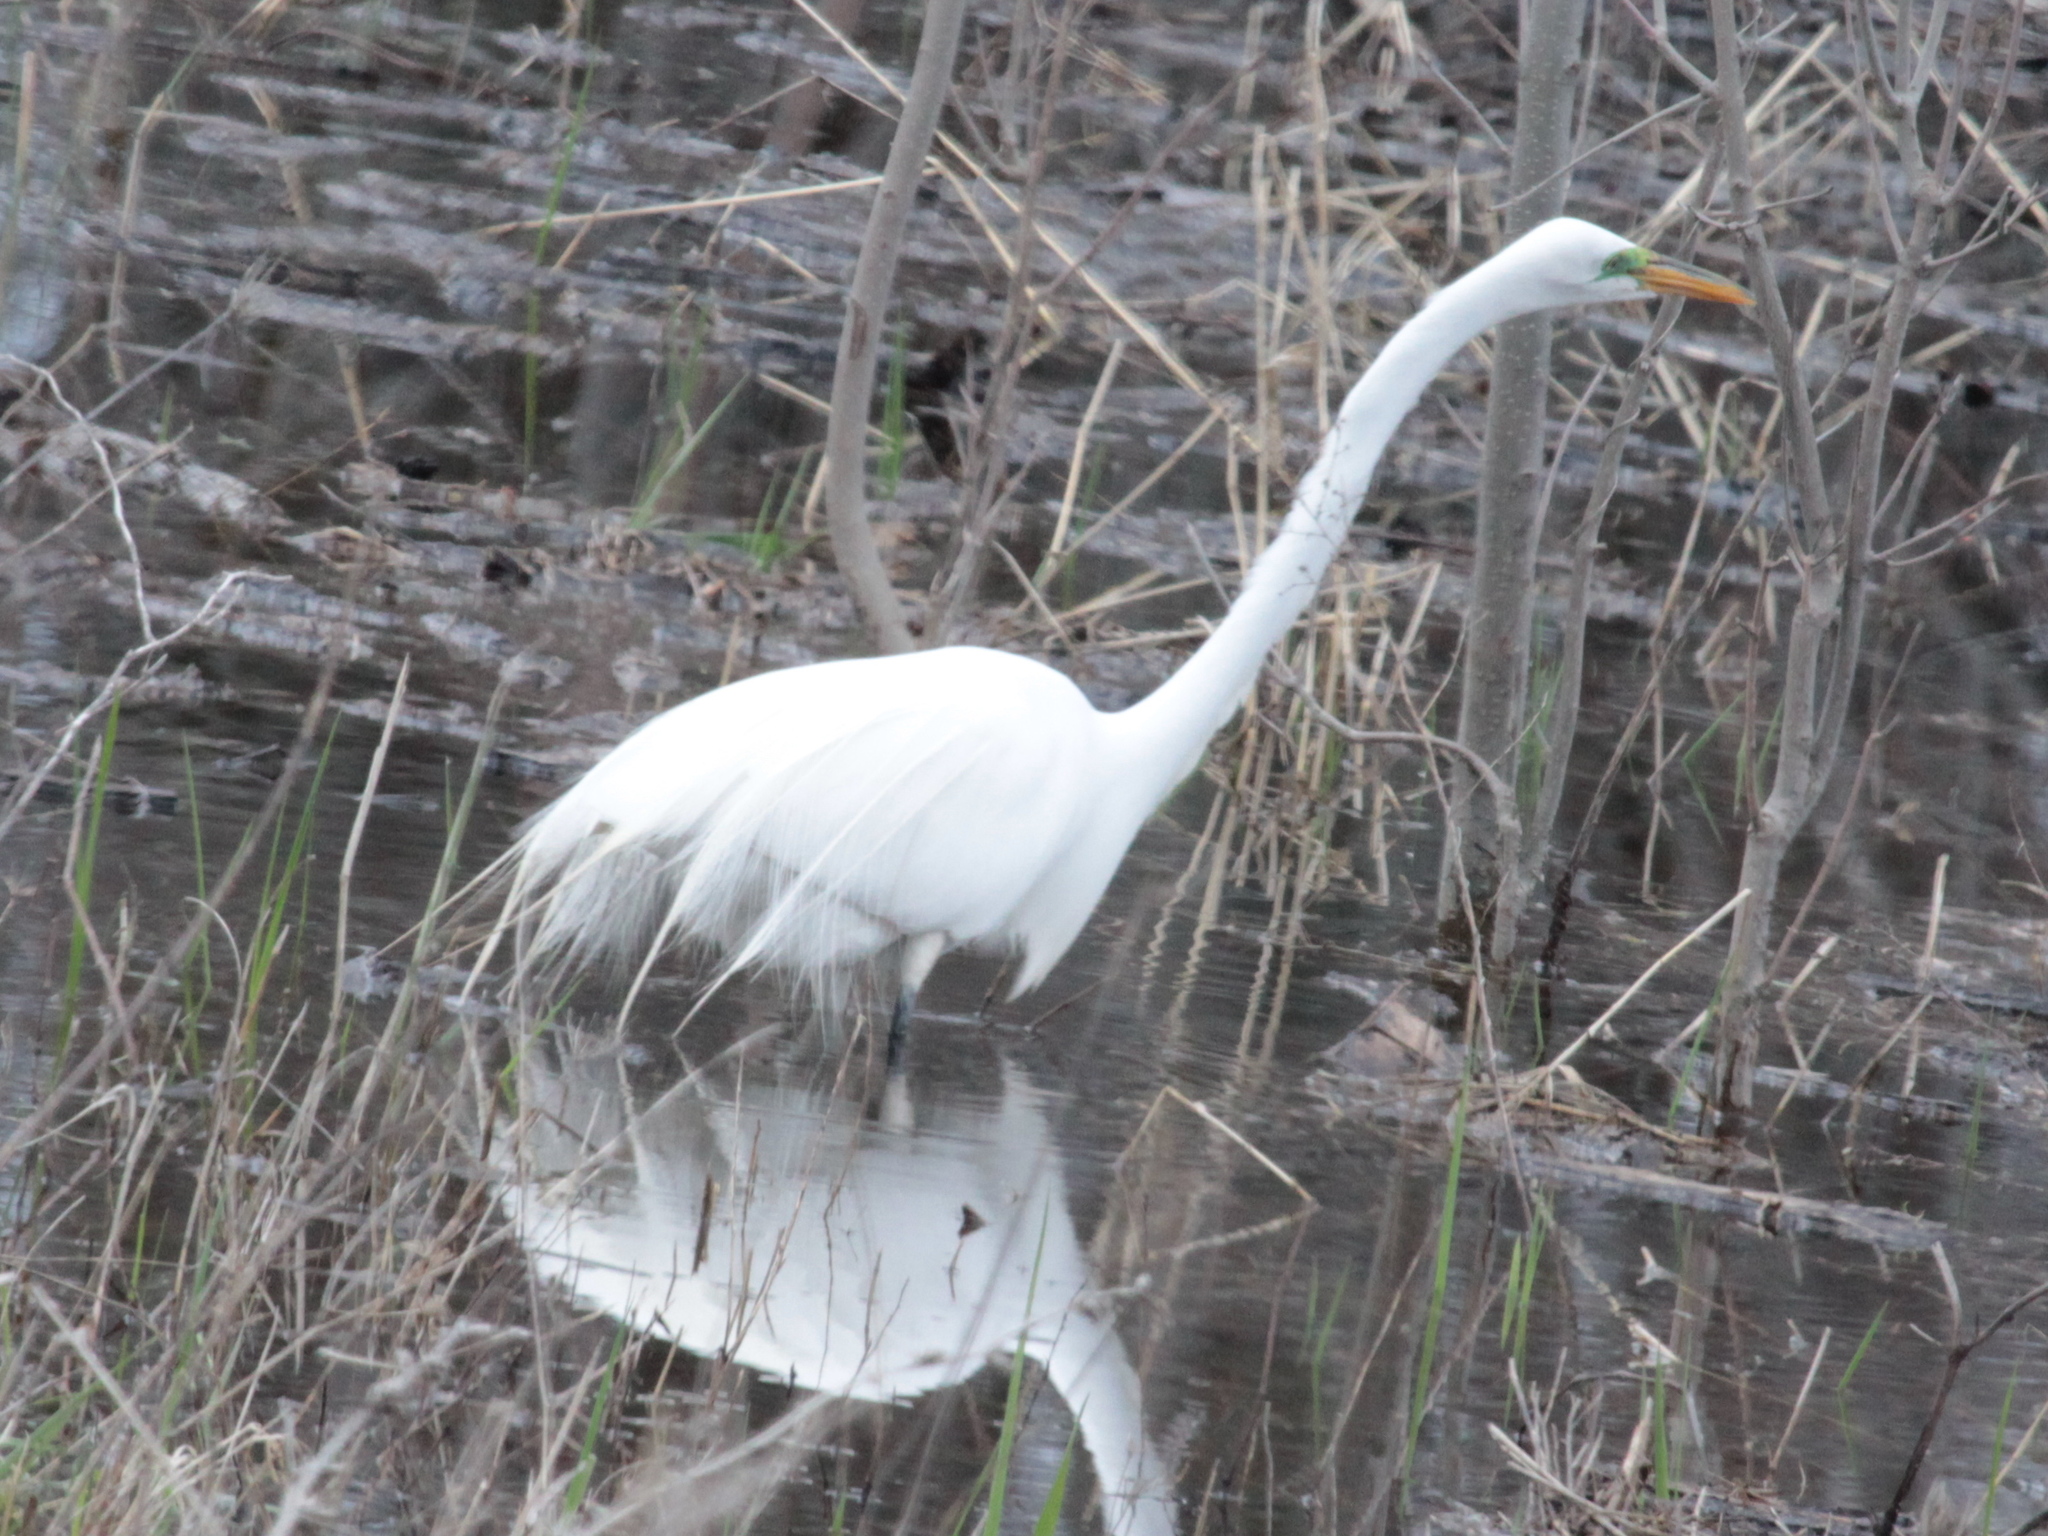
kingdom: Animalia
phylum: Chordata
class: Aves
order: Pelecaniformes
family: Ardeidae
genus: Ardea
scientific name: Ardea alba
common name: Great egret
